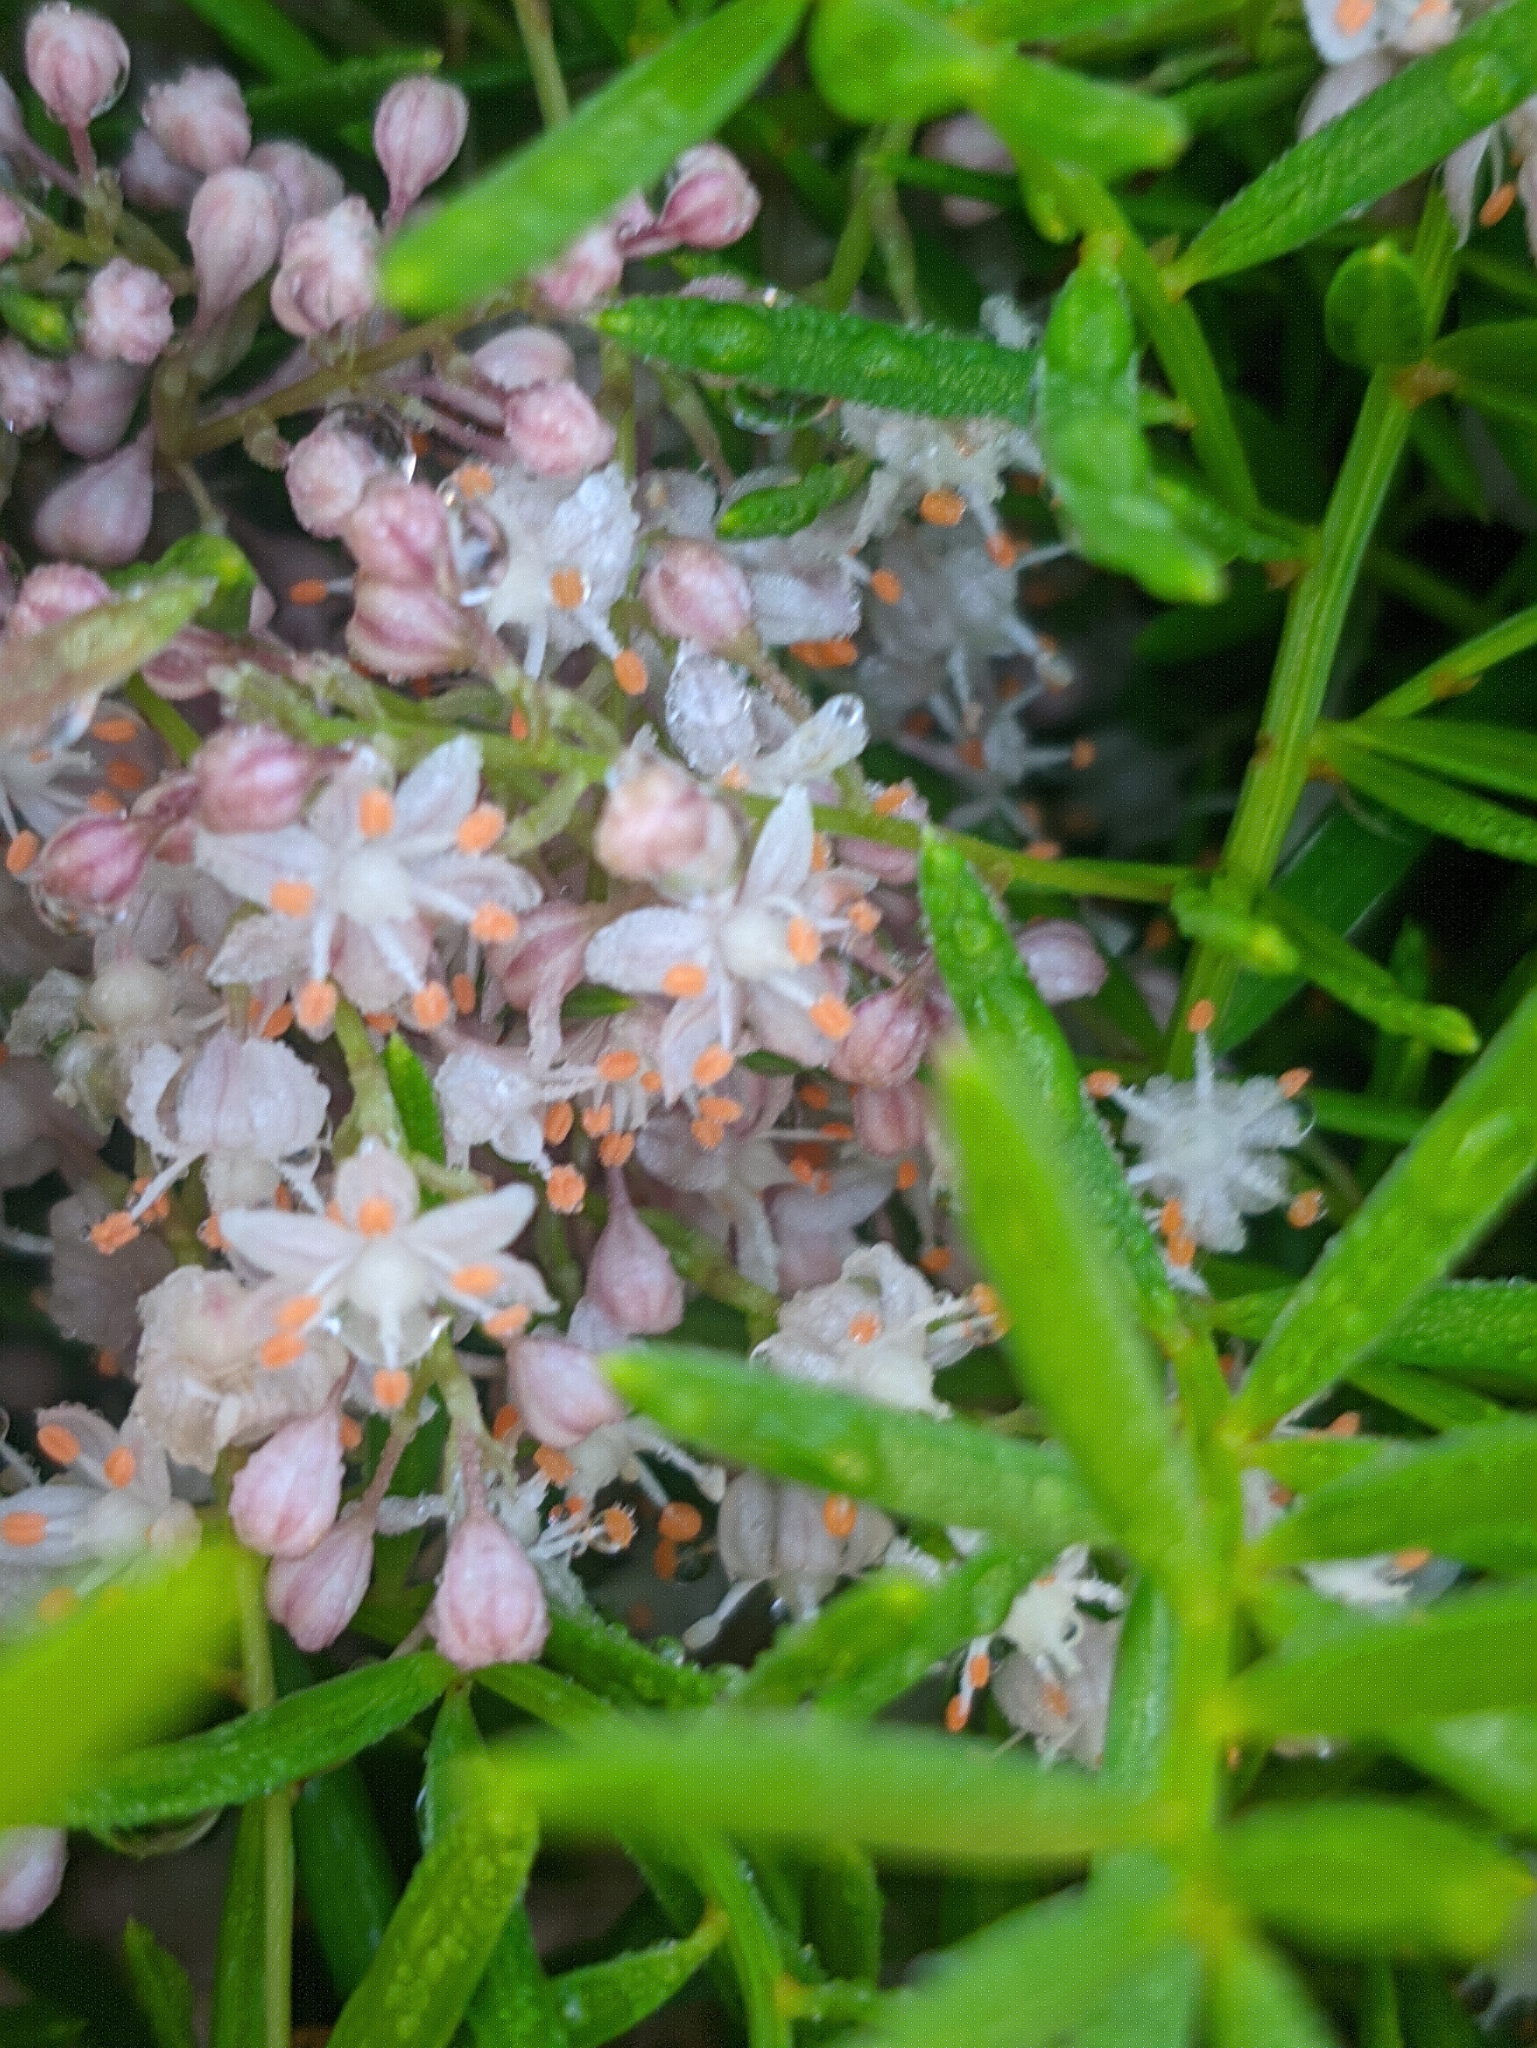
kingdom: Plantae
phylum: Tracheophyta
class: Liliopsida
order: Asparagales
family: Asparagaceae
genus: Asparagus
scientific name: Asparagus aethiopicus
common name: Sprenger's asparagus fern
